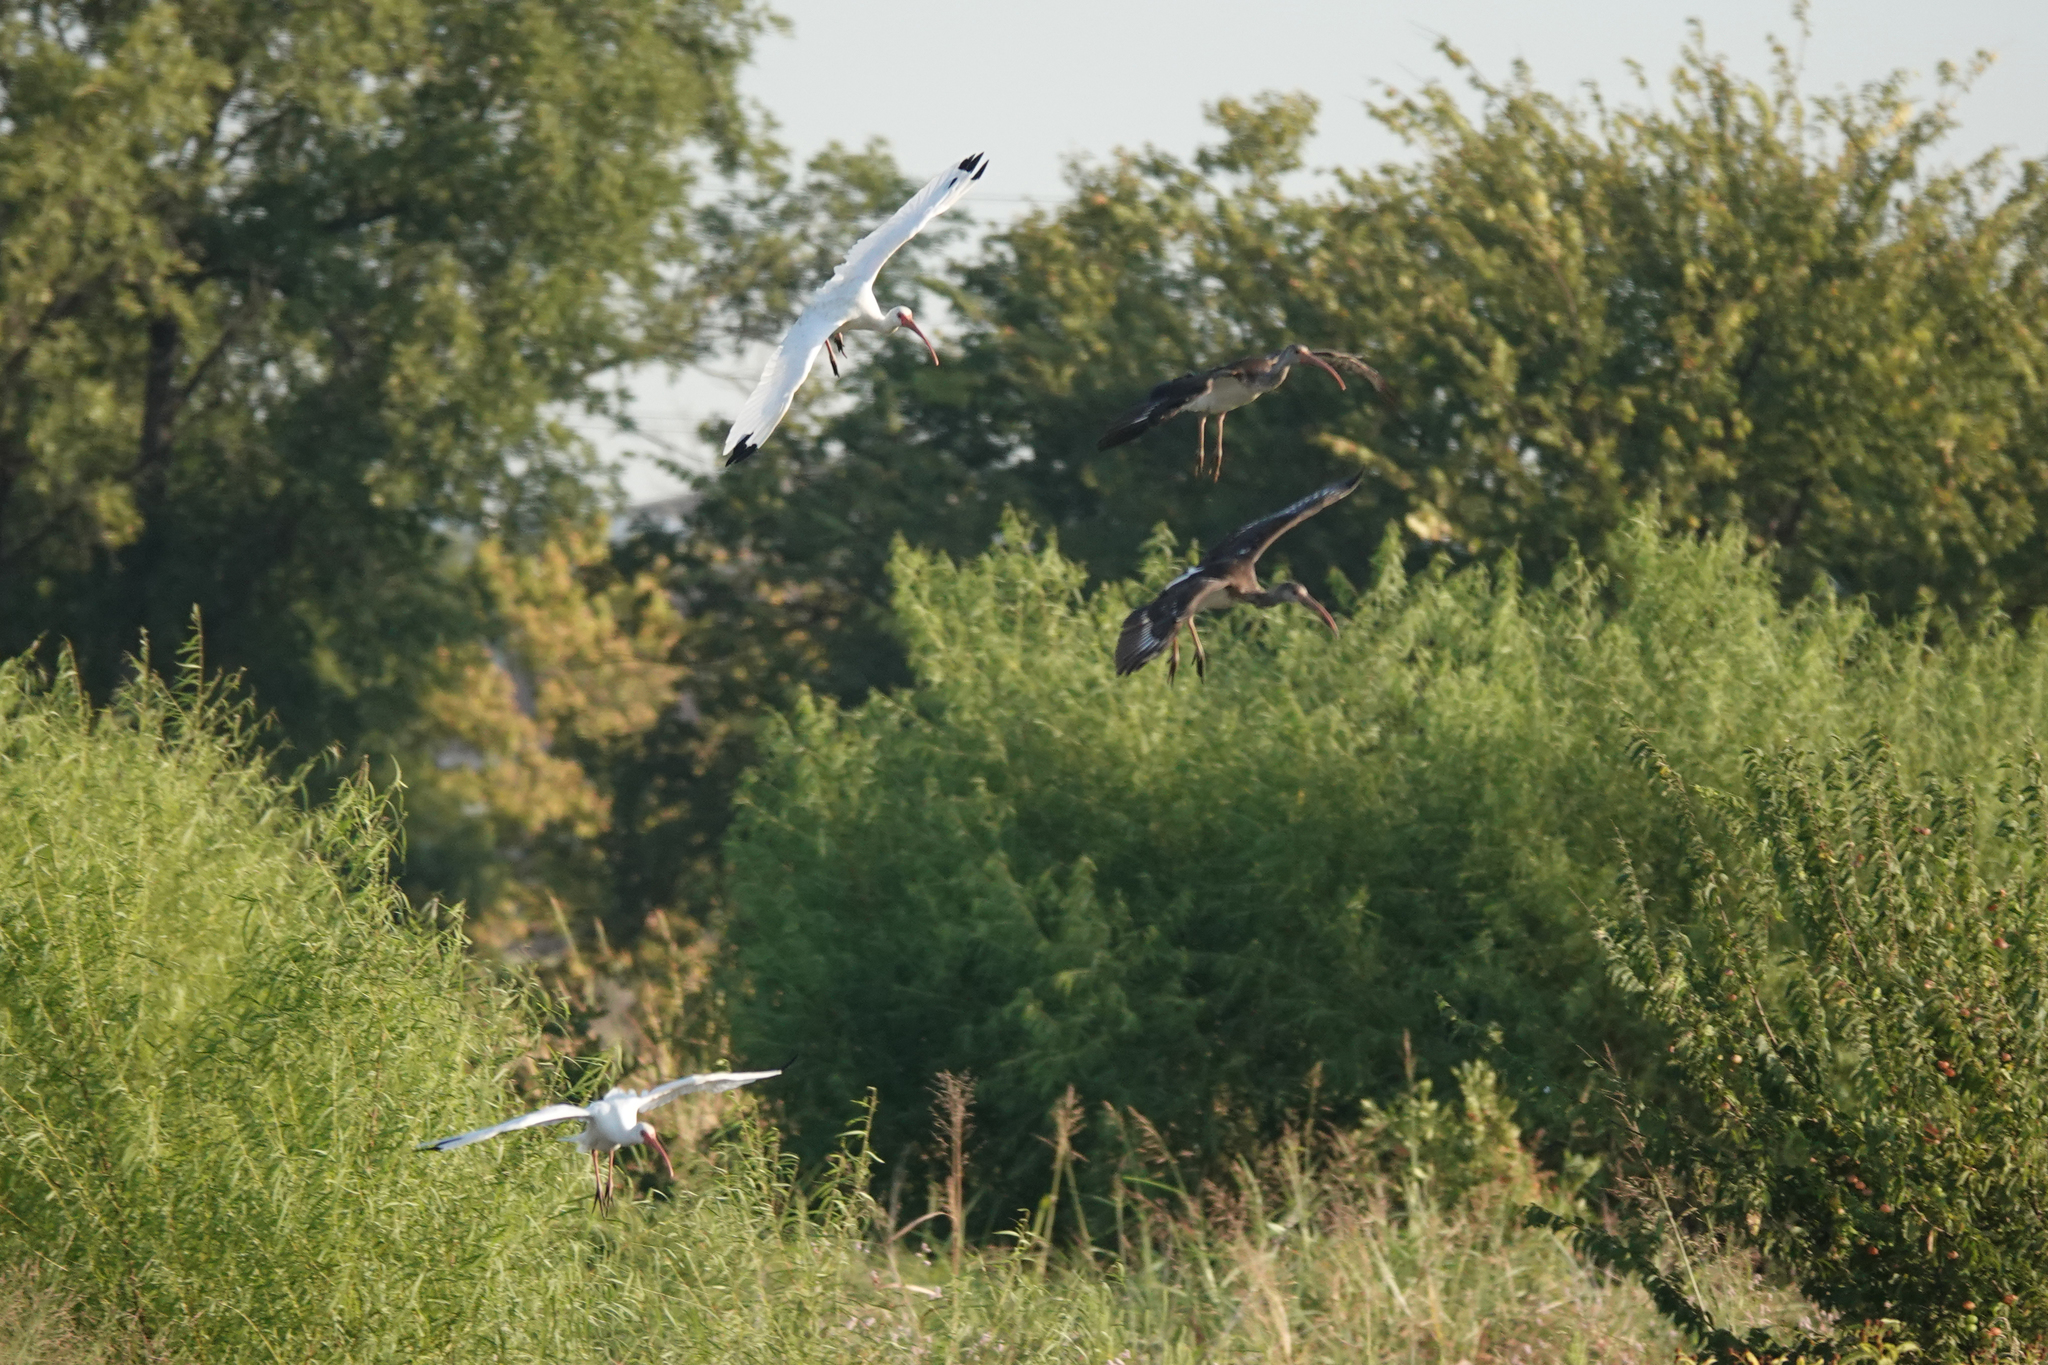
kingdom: Animalia
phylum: Chordata
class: Aves
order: Pelecaniformes
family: Threskiornithidae
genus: Eudocimus
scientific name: Eudocimus albus
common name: White ibis
